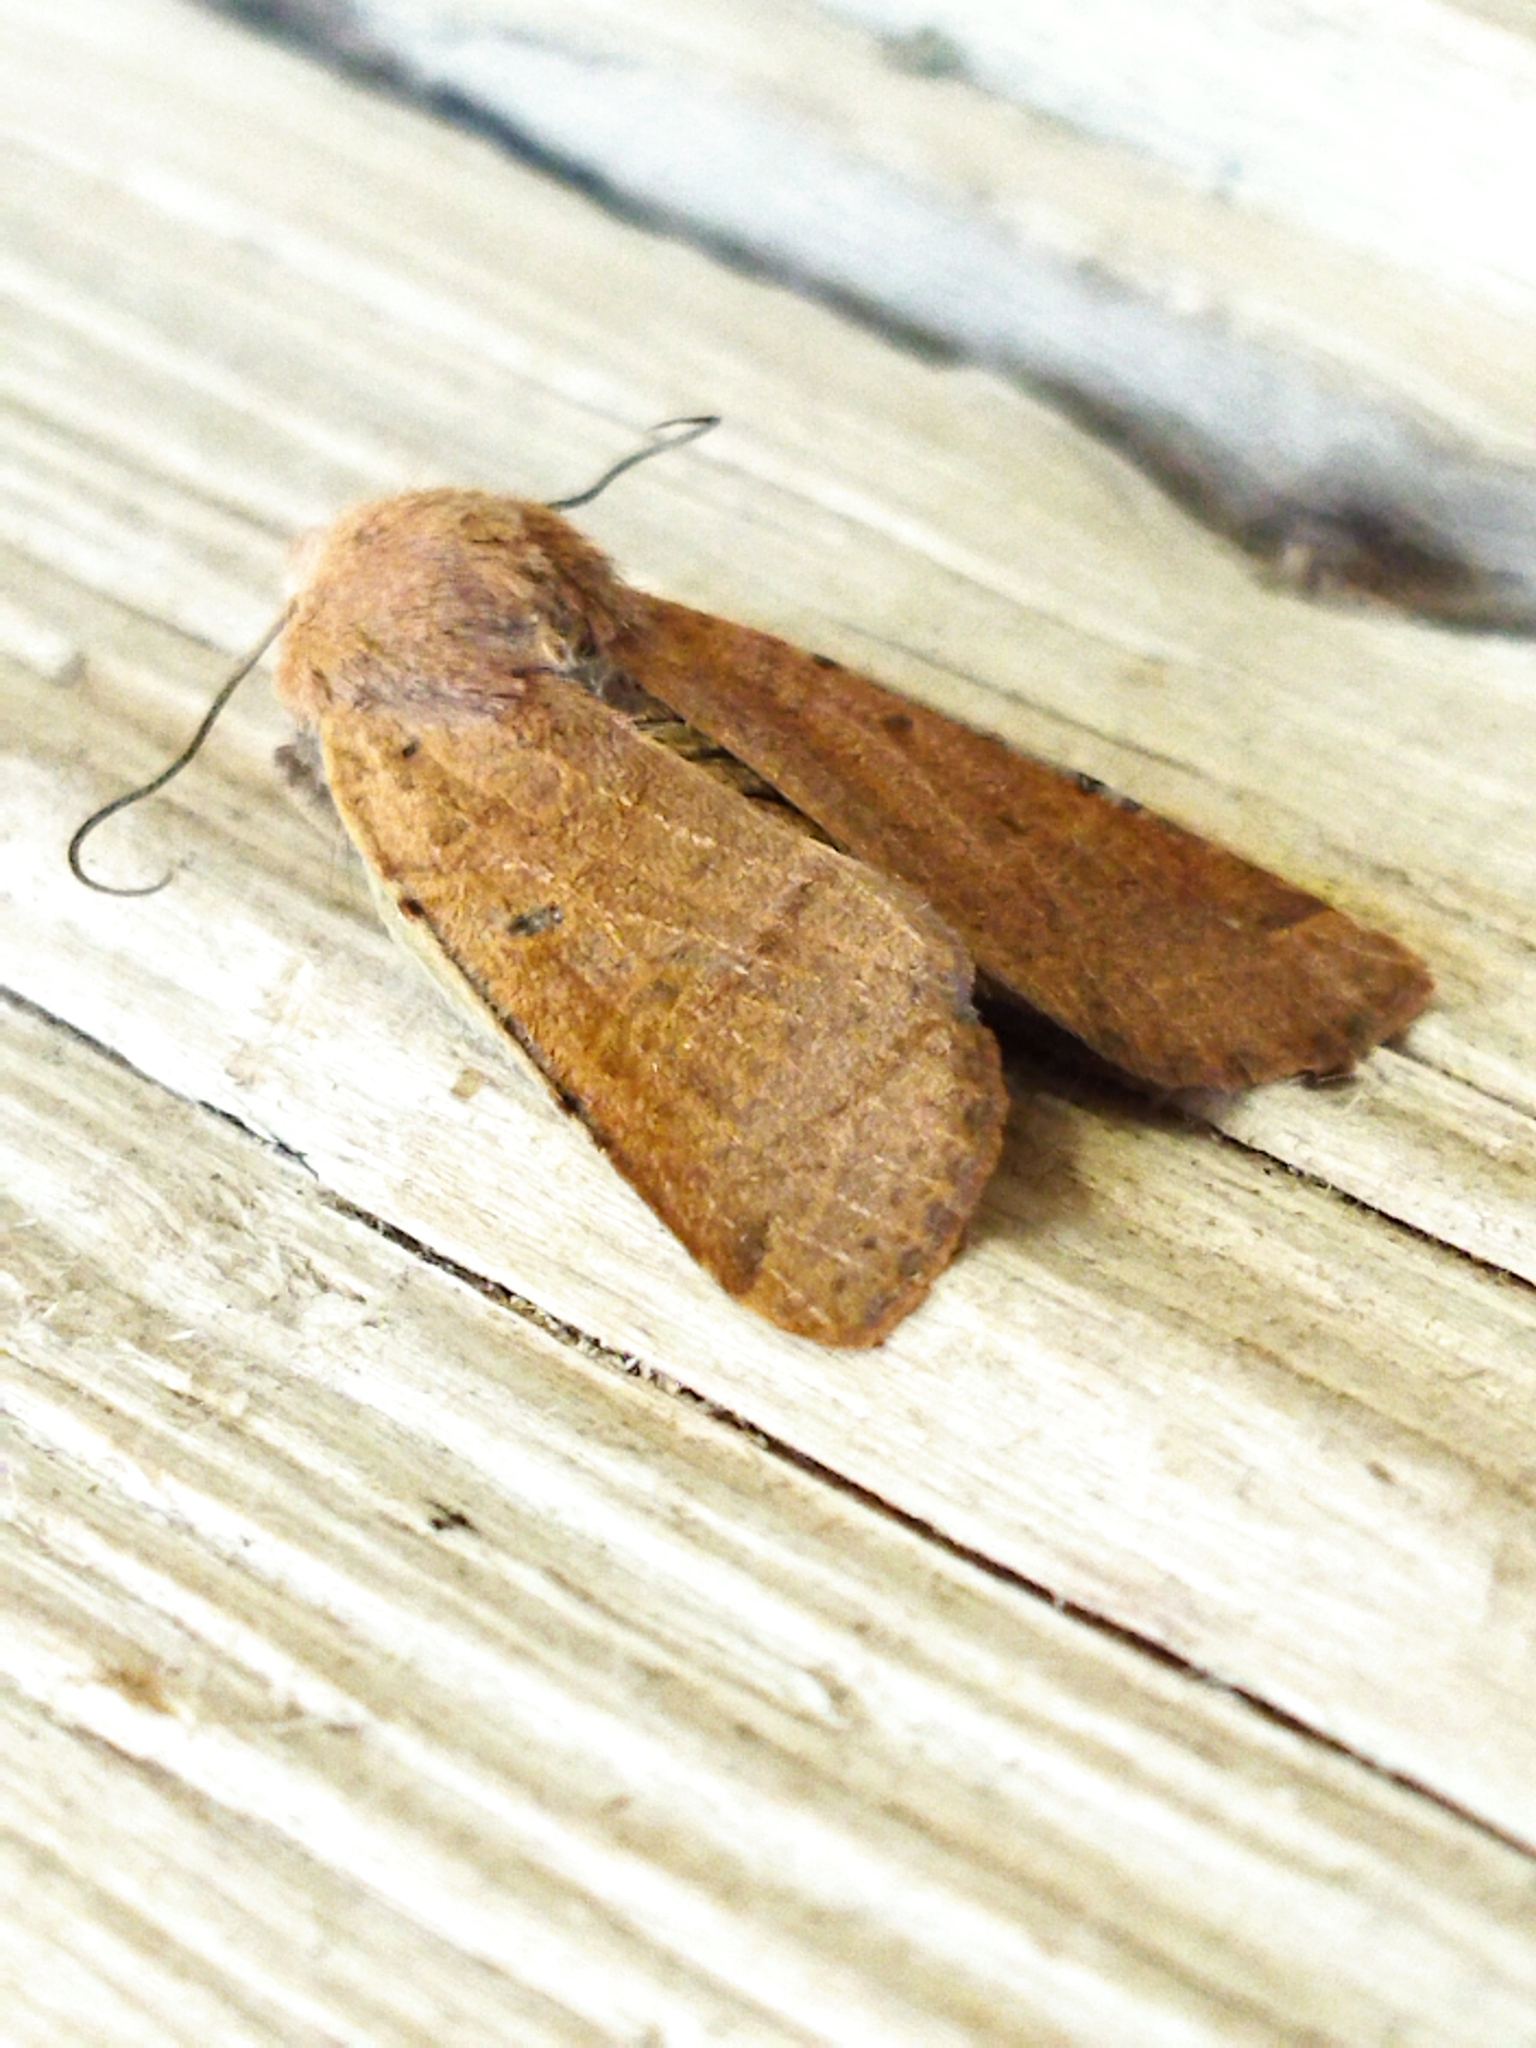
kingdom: Animalia
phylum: Arthropoda
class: Insecta
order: Lepidoptera
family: Noctuidae
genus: Agrochola
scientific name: Agrochola lychnidis
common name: Beaded chestnut
